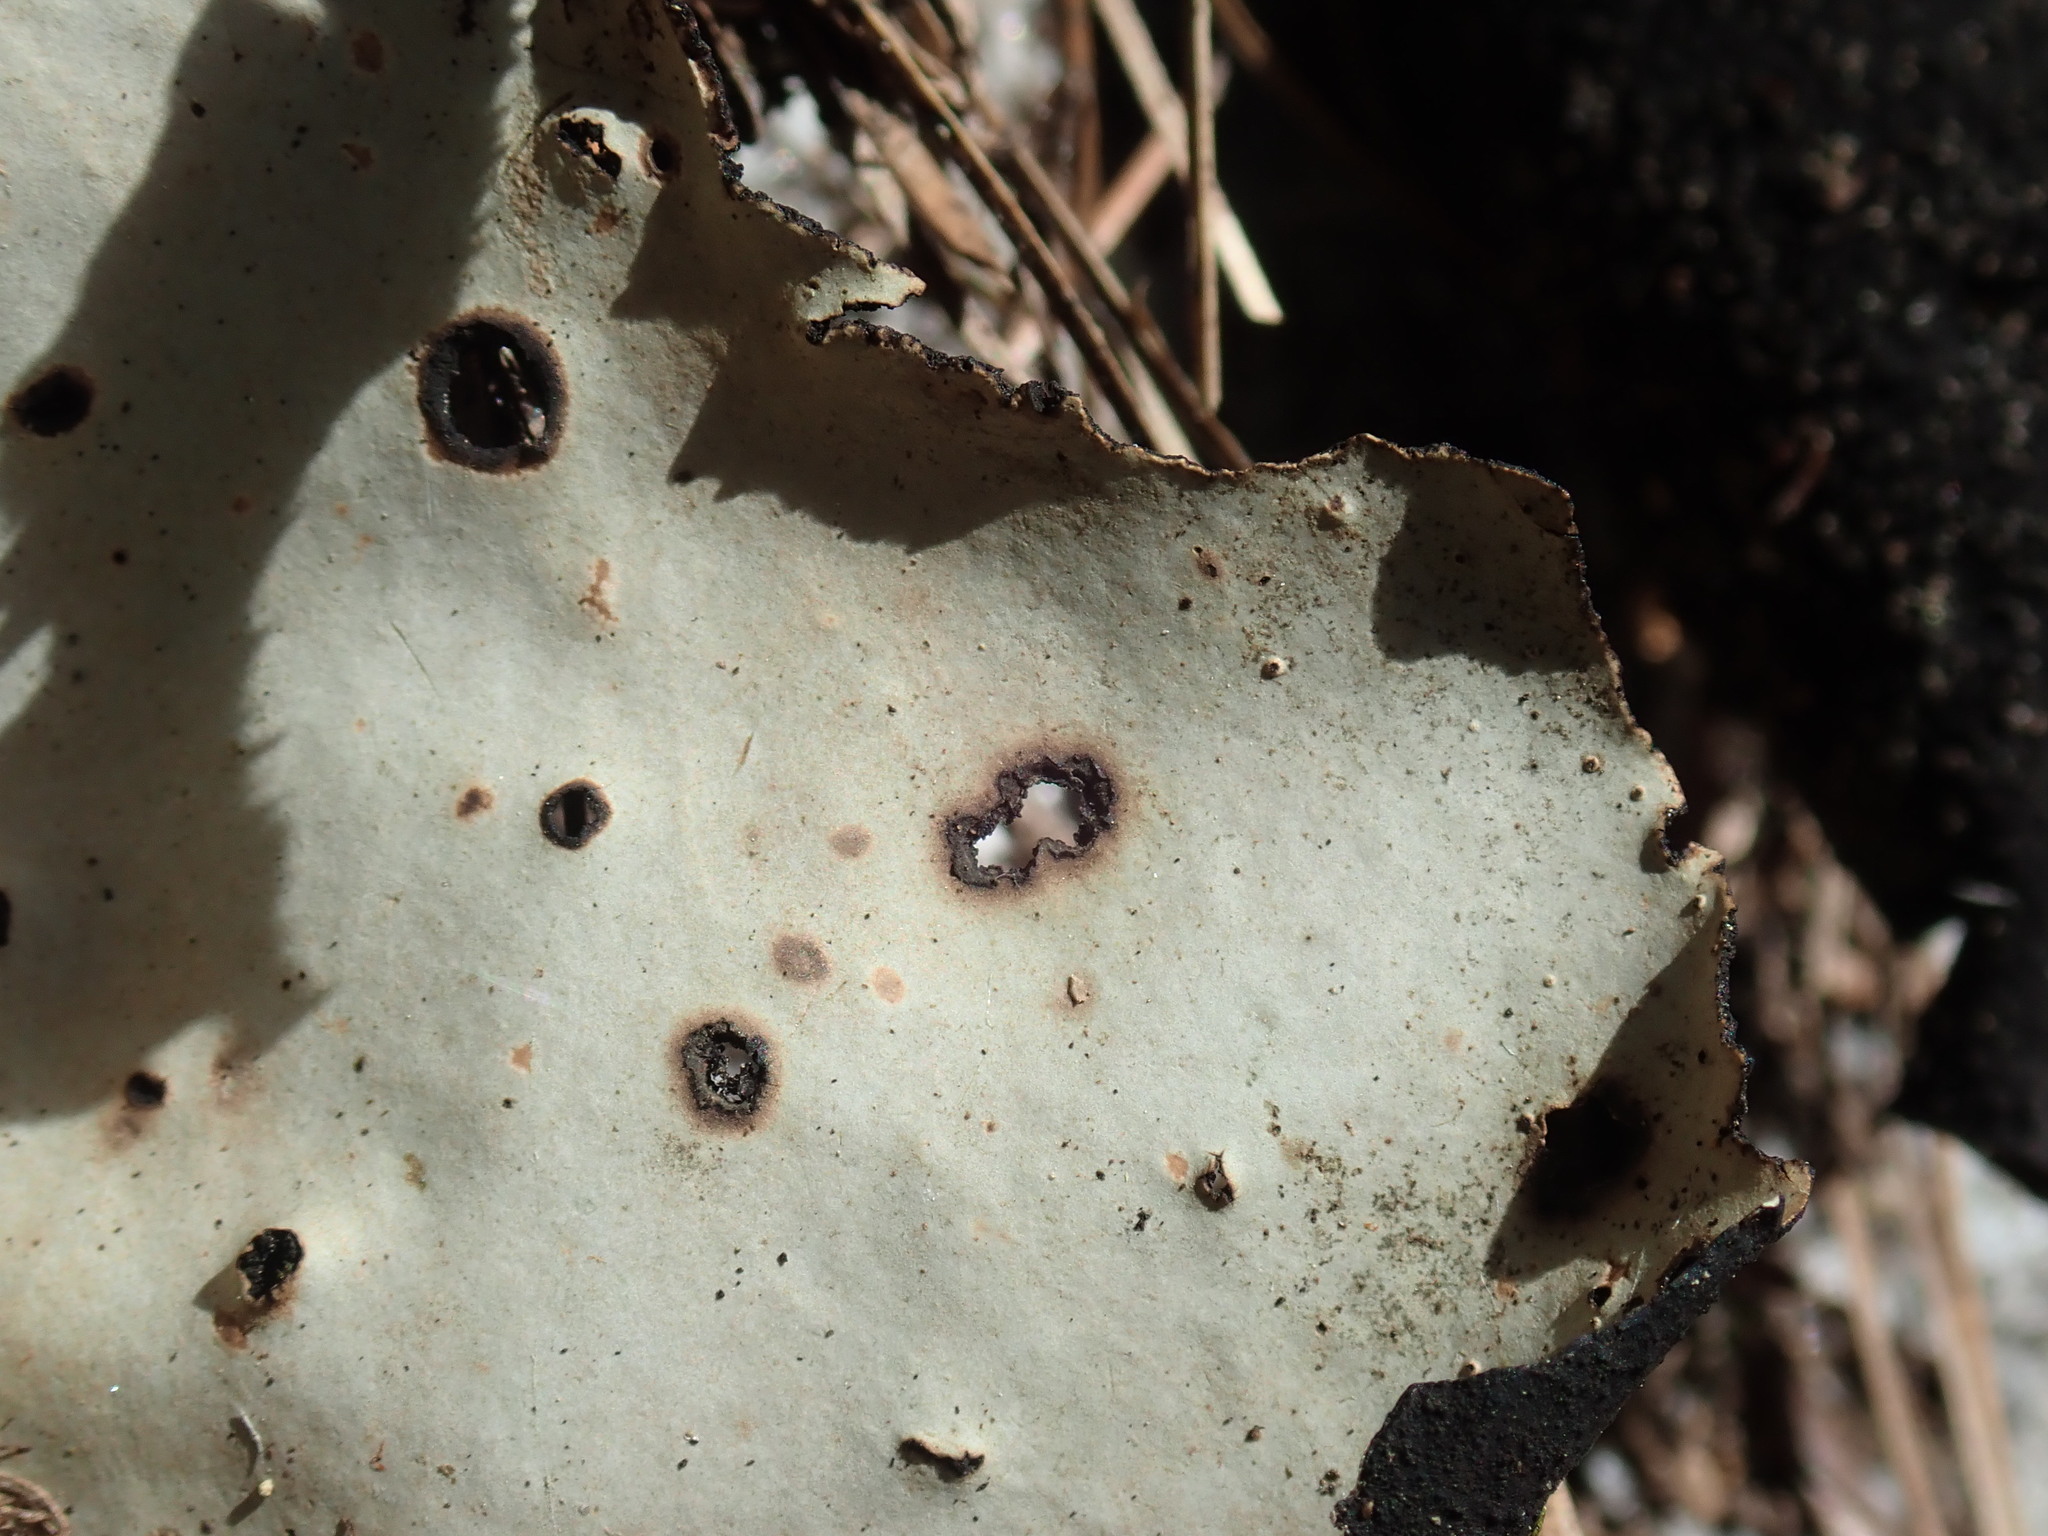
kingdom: Fungi
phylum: Ascomycota
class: Lecanoromycetes
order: Umbilicariales
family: Umbilicariaceae
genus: Umbilicaria
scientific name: Umbilicaria mammulata
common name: Smooth rock tripe
